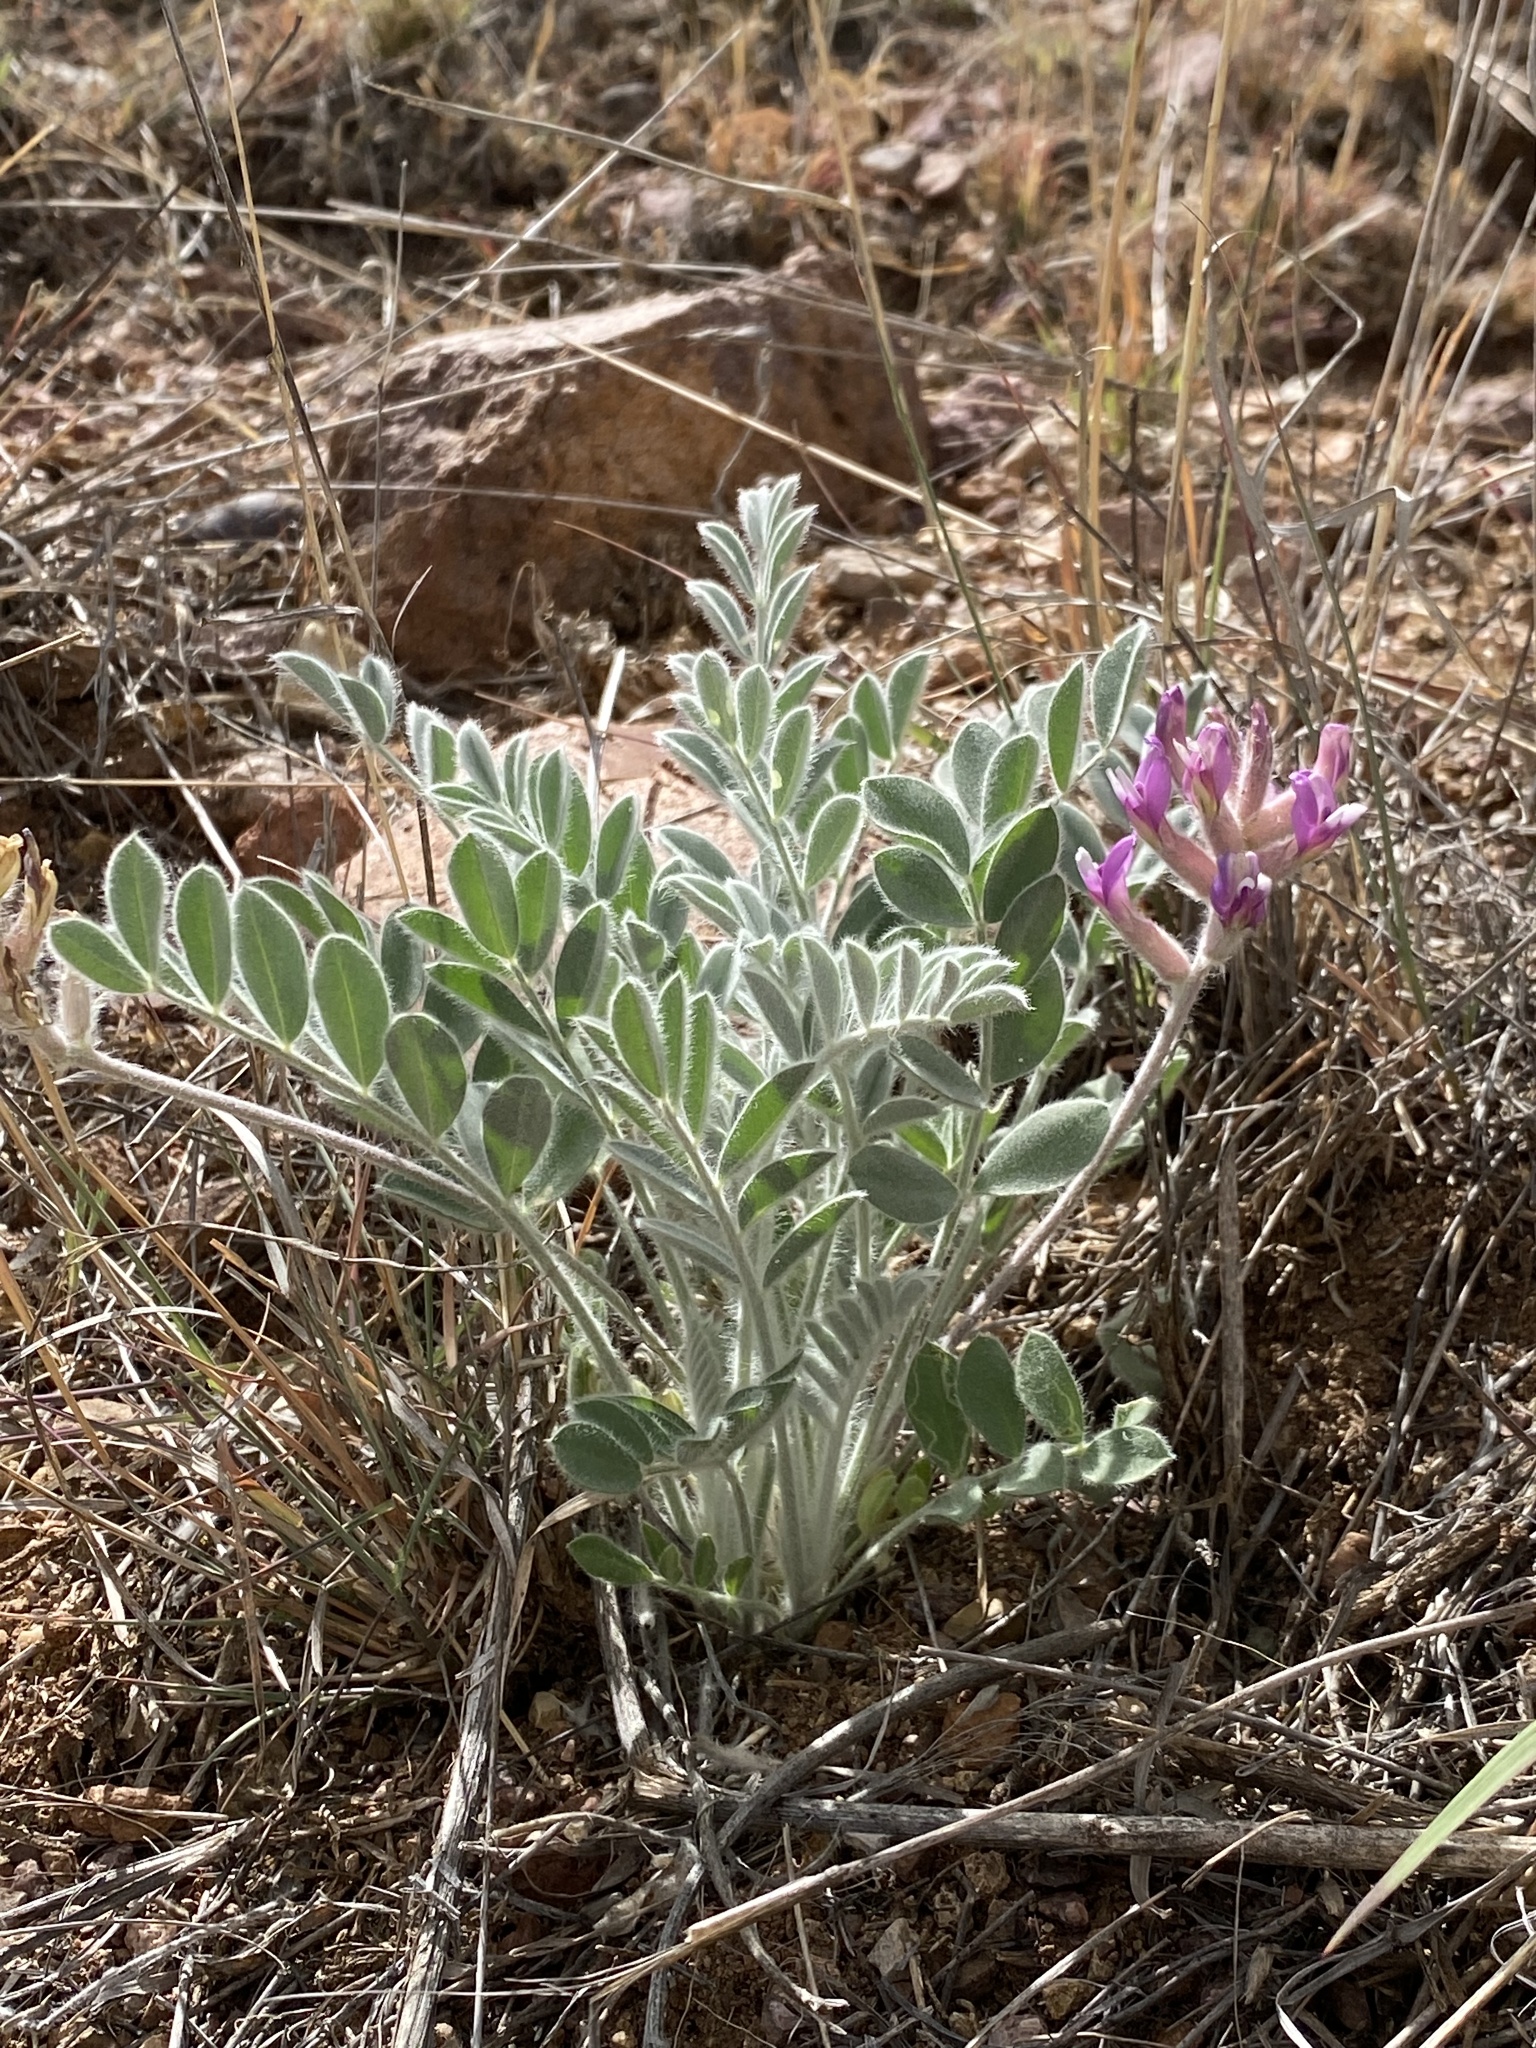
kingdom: Plantae
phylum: Tracheophyta
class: Magnoliopsida
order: Fabales
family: Fabaceae
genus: Astragalus
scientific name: Astragalus mollissimus
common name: Woolly locoweed
